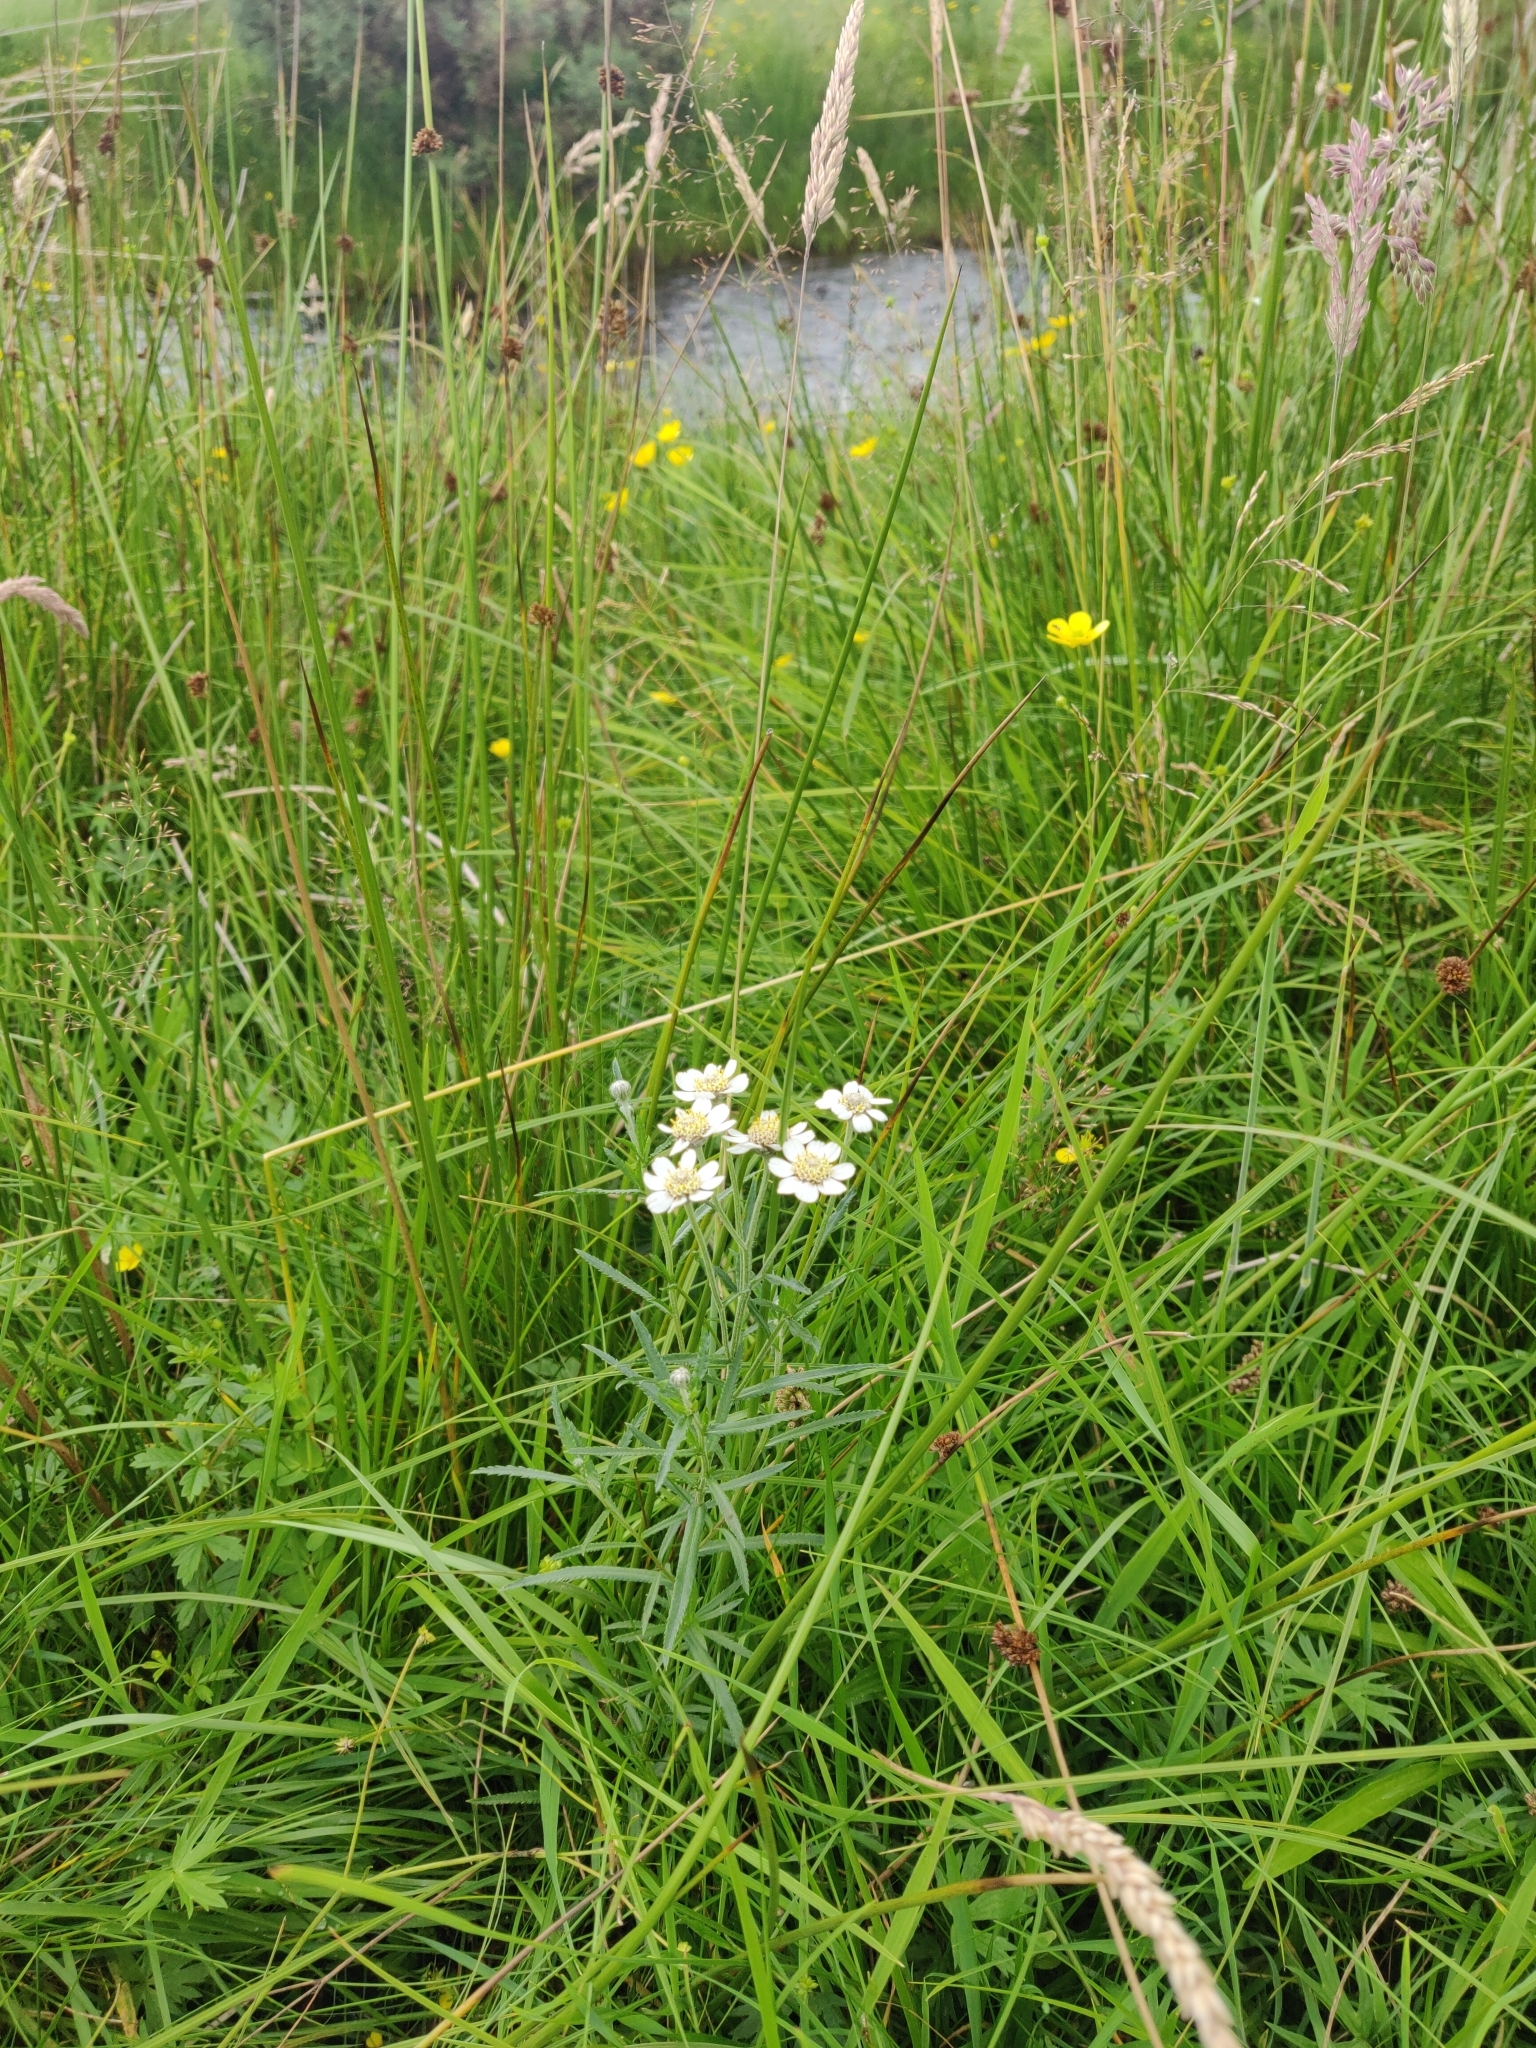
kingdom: Plantae
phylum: Tracheophyta
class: Magnoliopsida
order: Asterales
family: Asteraceae
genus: Achillea
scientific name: Achillea ptarmica
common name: Sneezeweed
